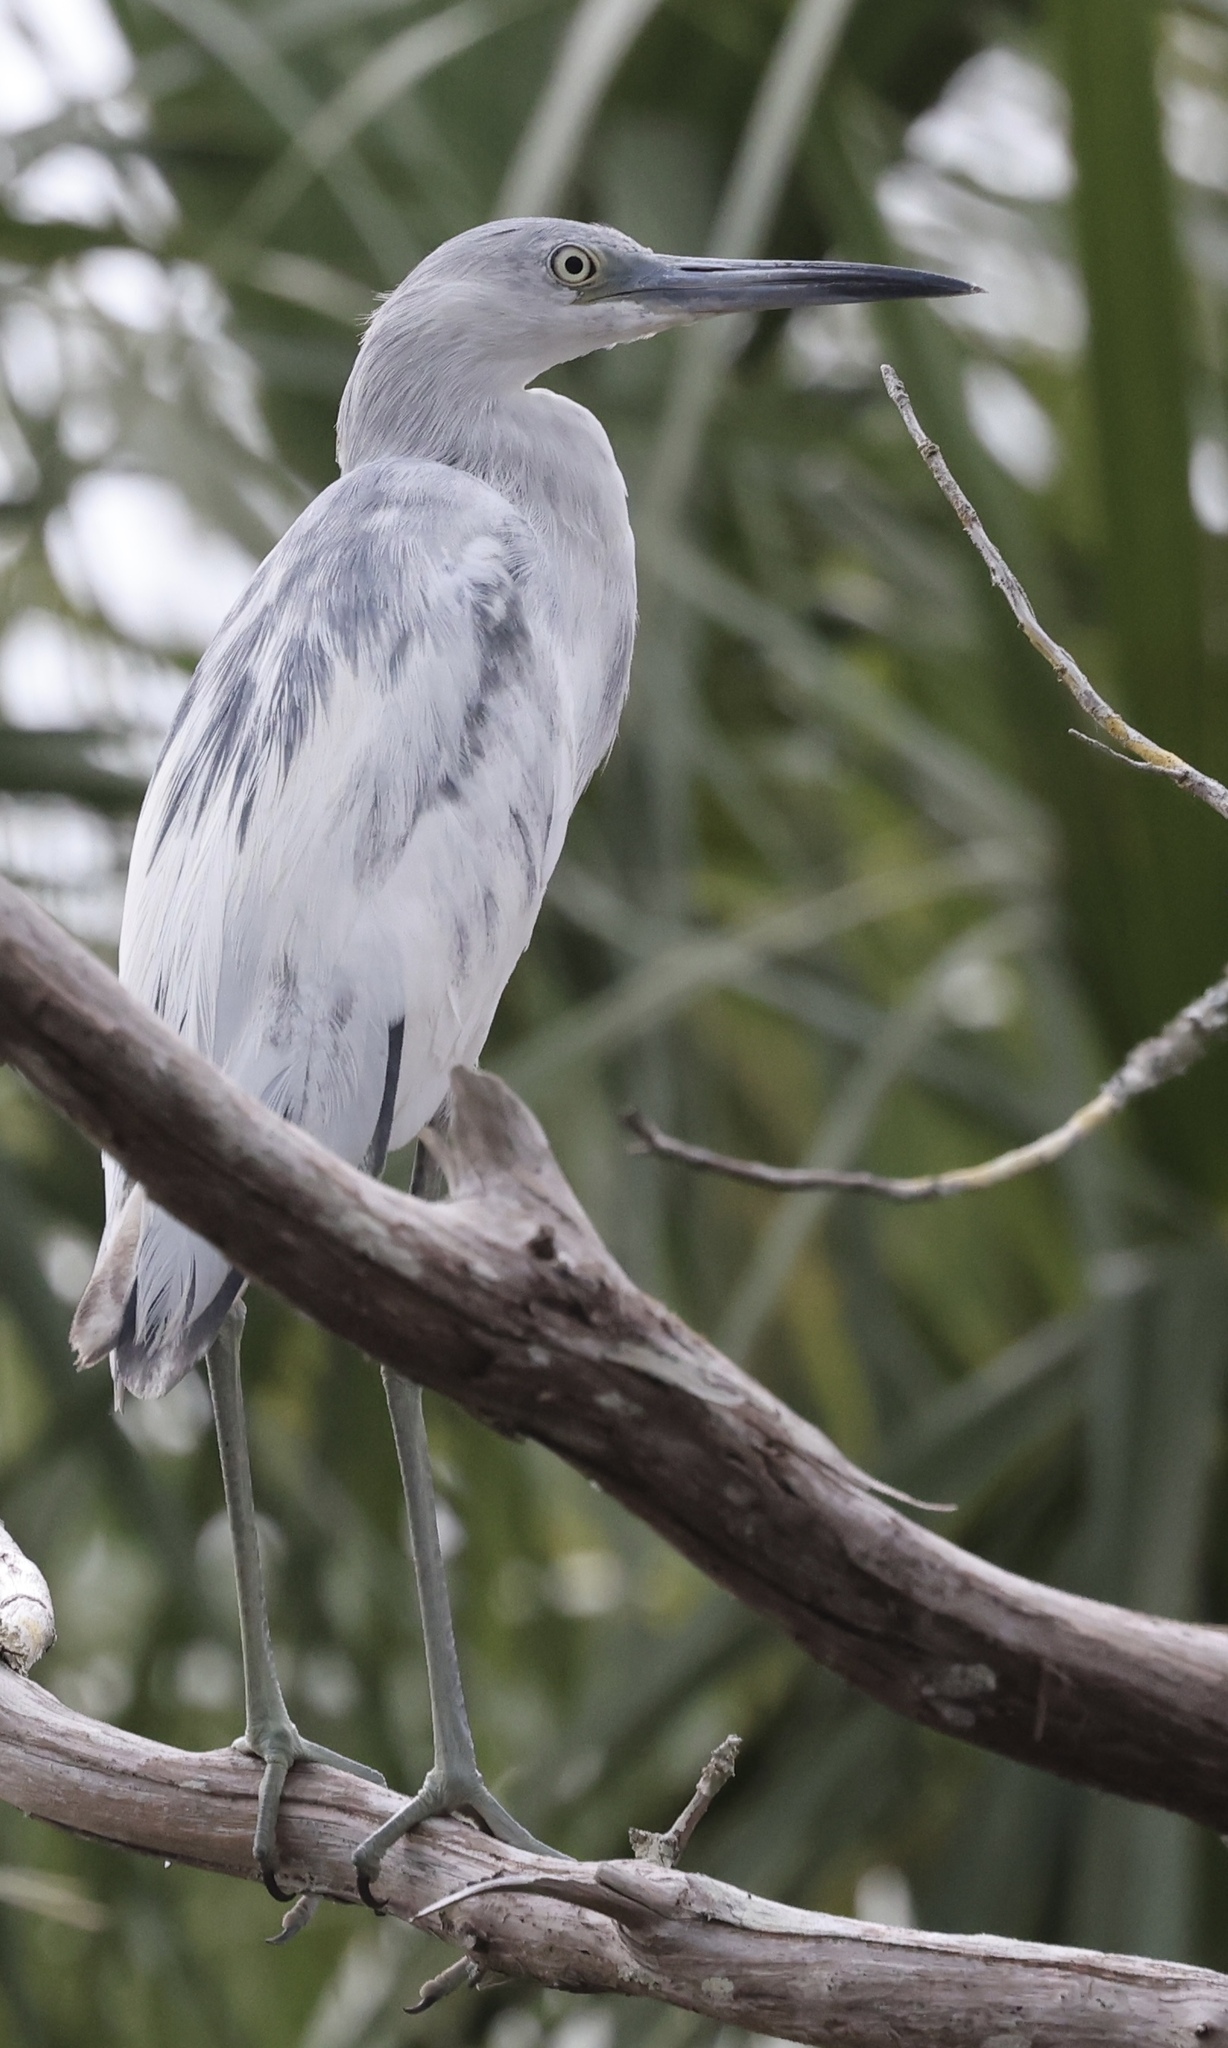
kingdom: Animalia
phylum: Chordata
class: Aves
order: Pelecaniformes
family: Ardeidae
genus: Egretta
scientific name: Egretta caerulea
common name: Little blue heron
